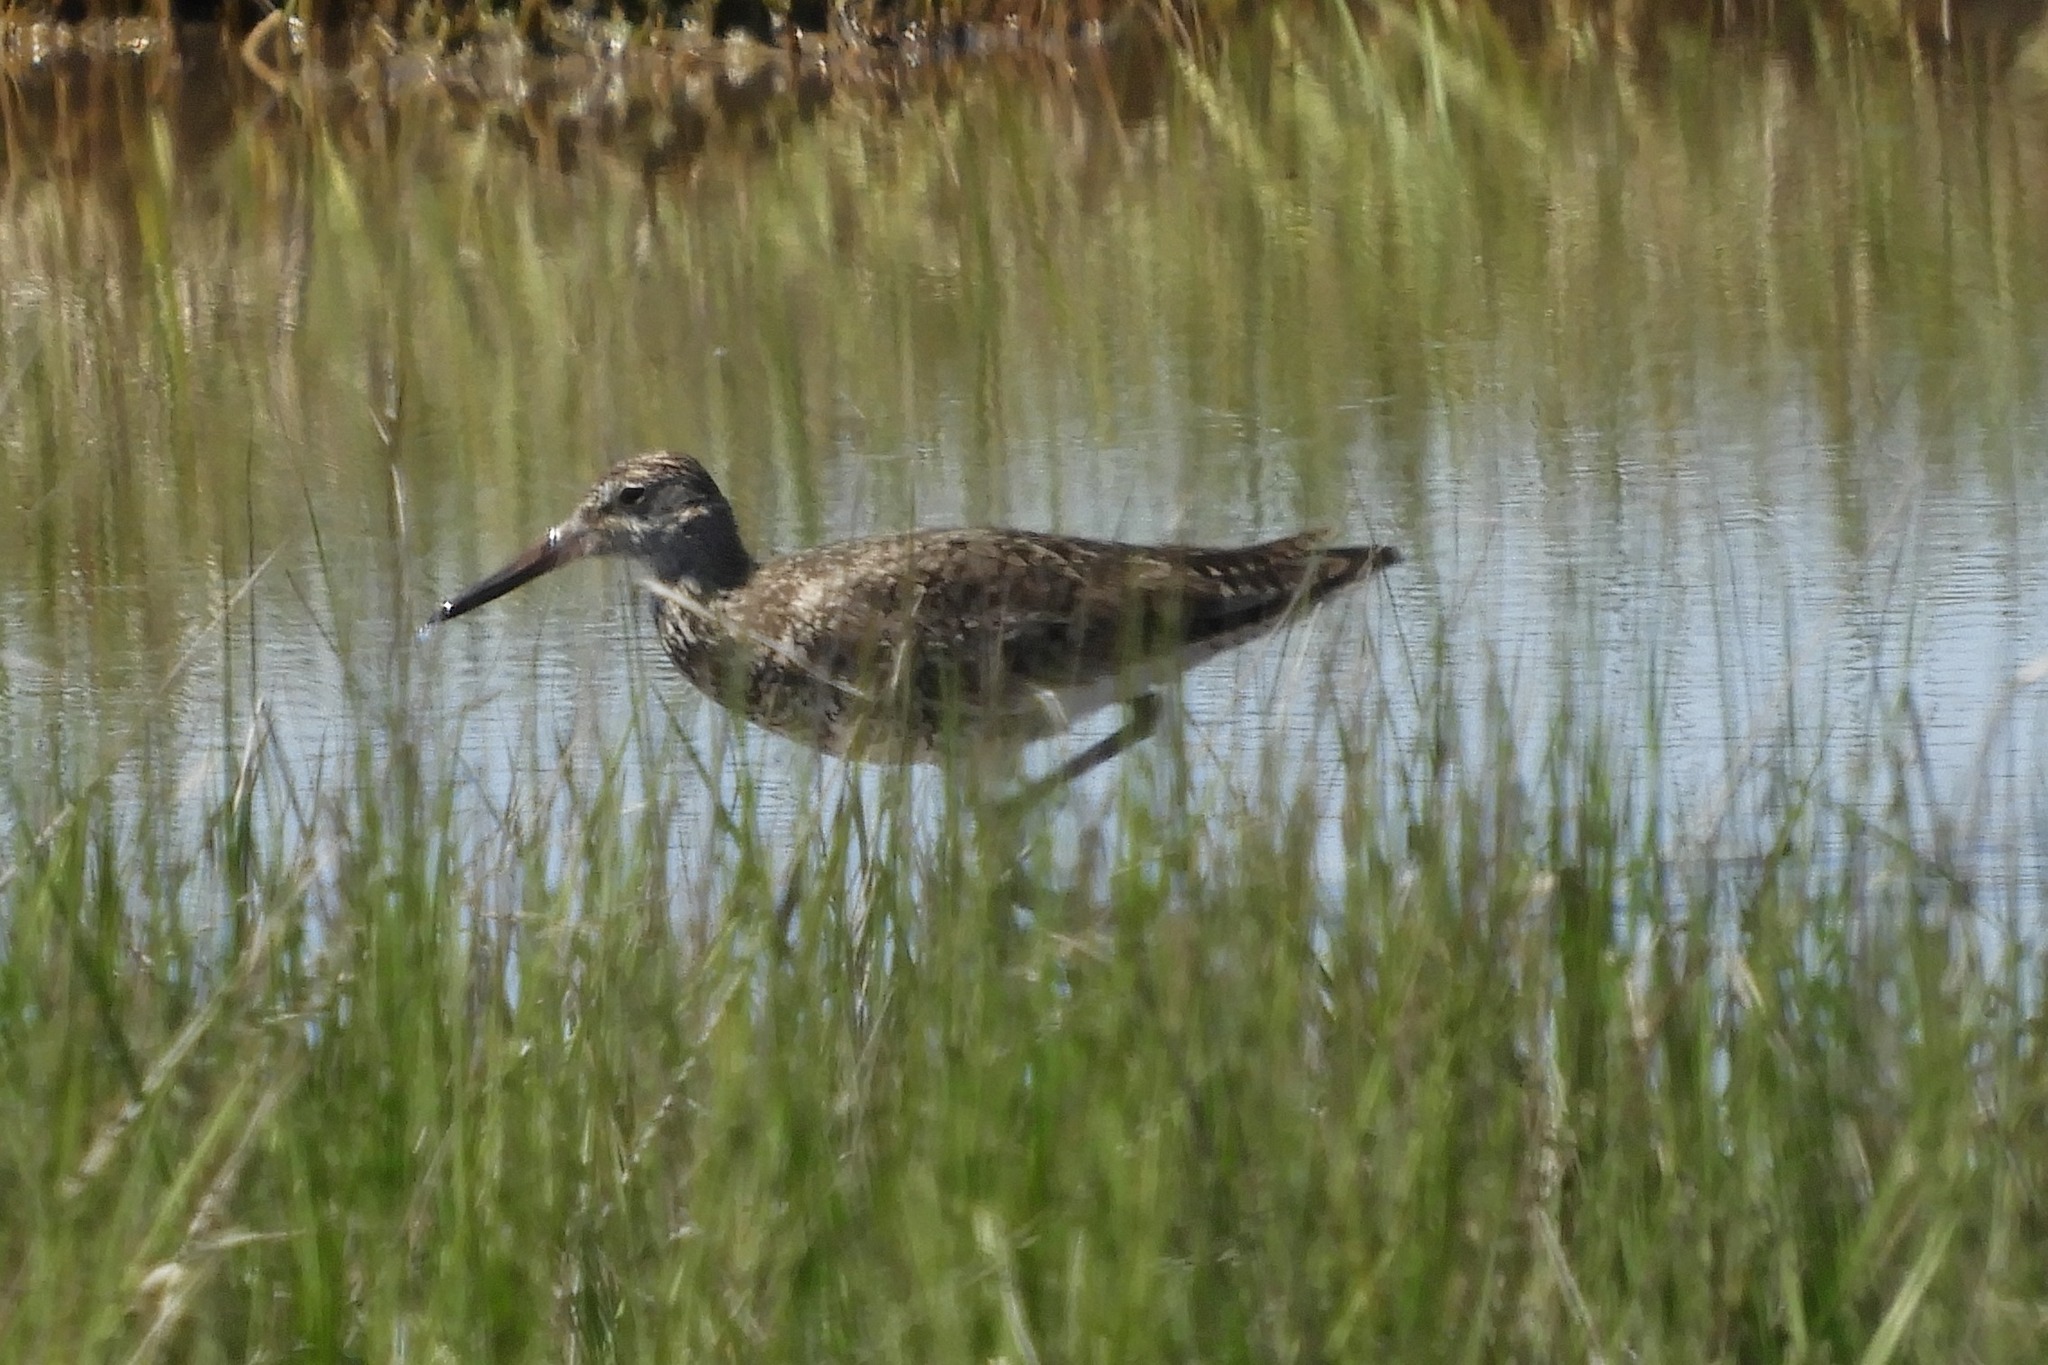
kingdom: Animalia
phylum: Chordata
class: Aves
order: Charadriiformes
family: Scolopacidae
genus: Tringa
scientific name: Tringa semipalmata
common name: Willet
